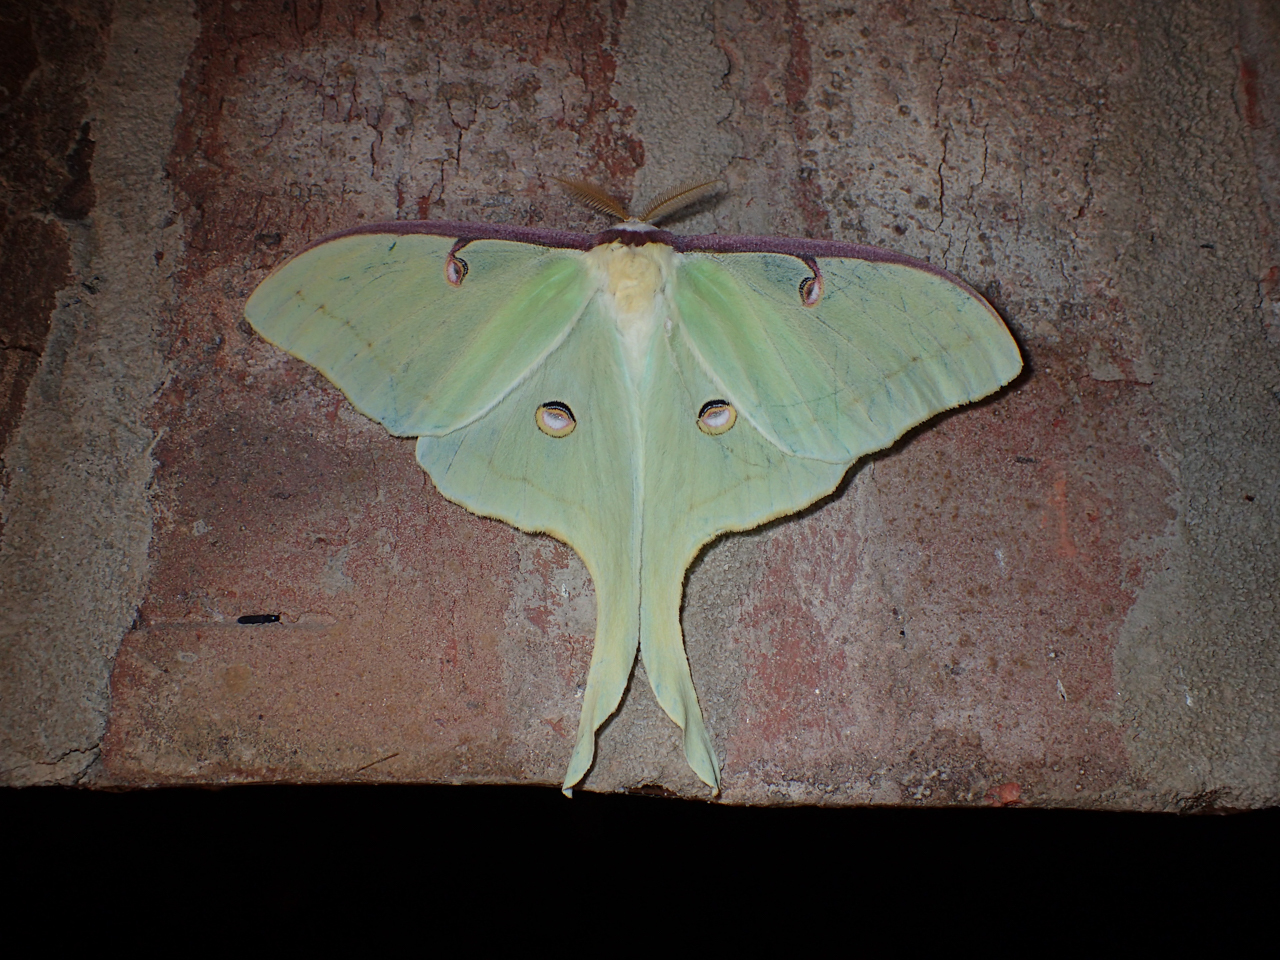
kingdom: Animalia
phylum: Arthropoda
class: Insecta
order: Lepidoptera
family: Saturniidae
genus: Actias
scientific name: Actias luna
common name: Luna moth
